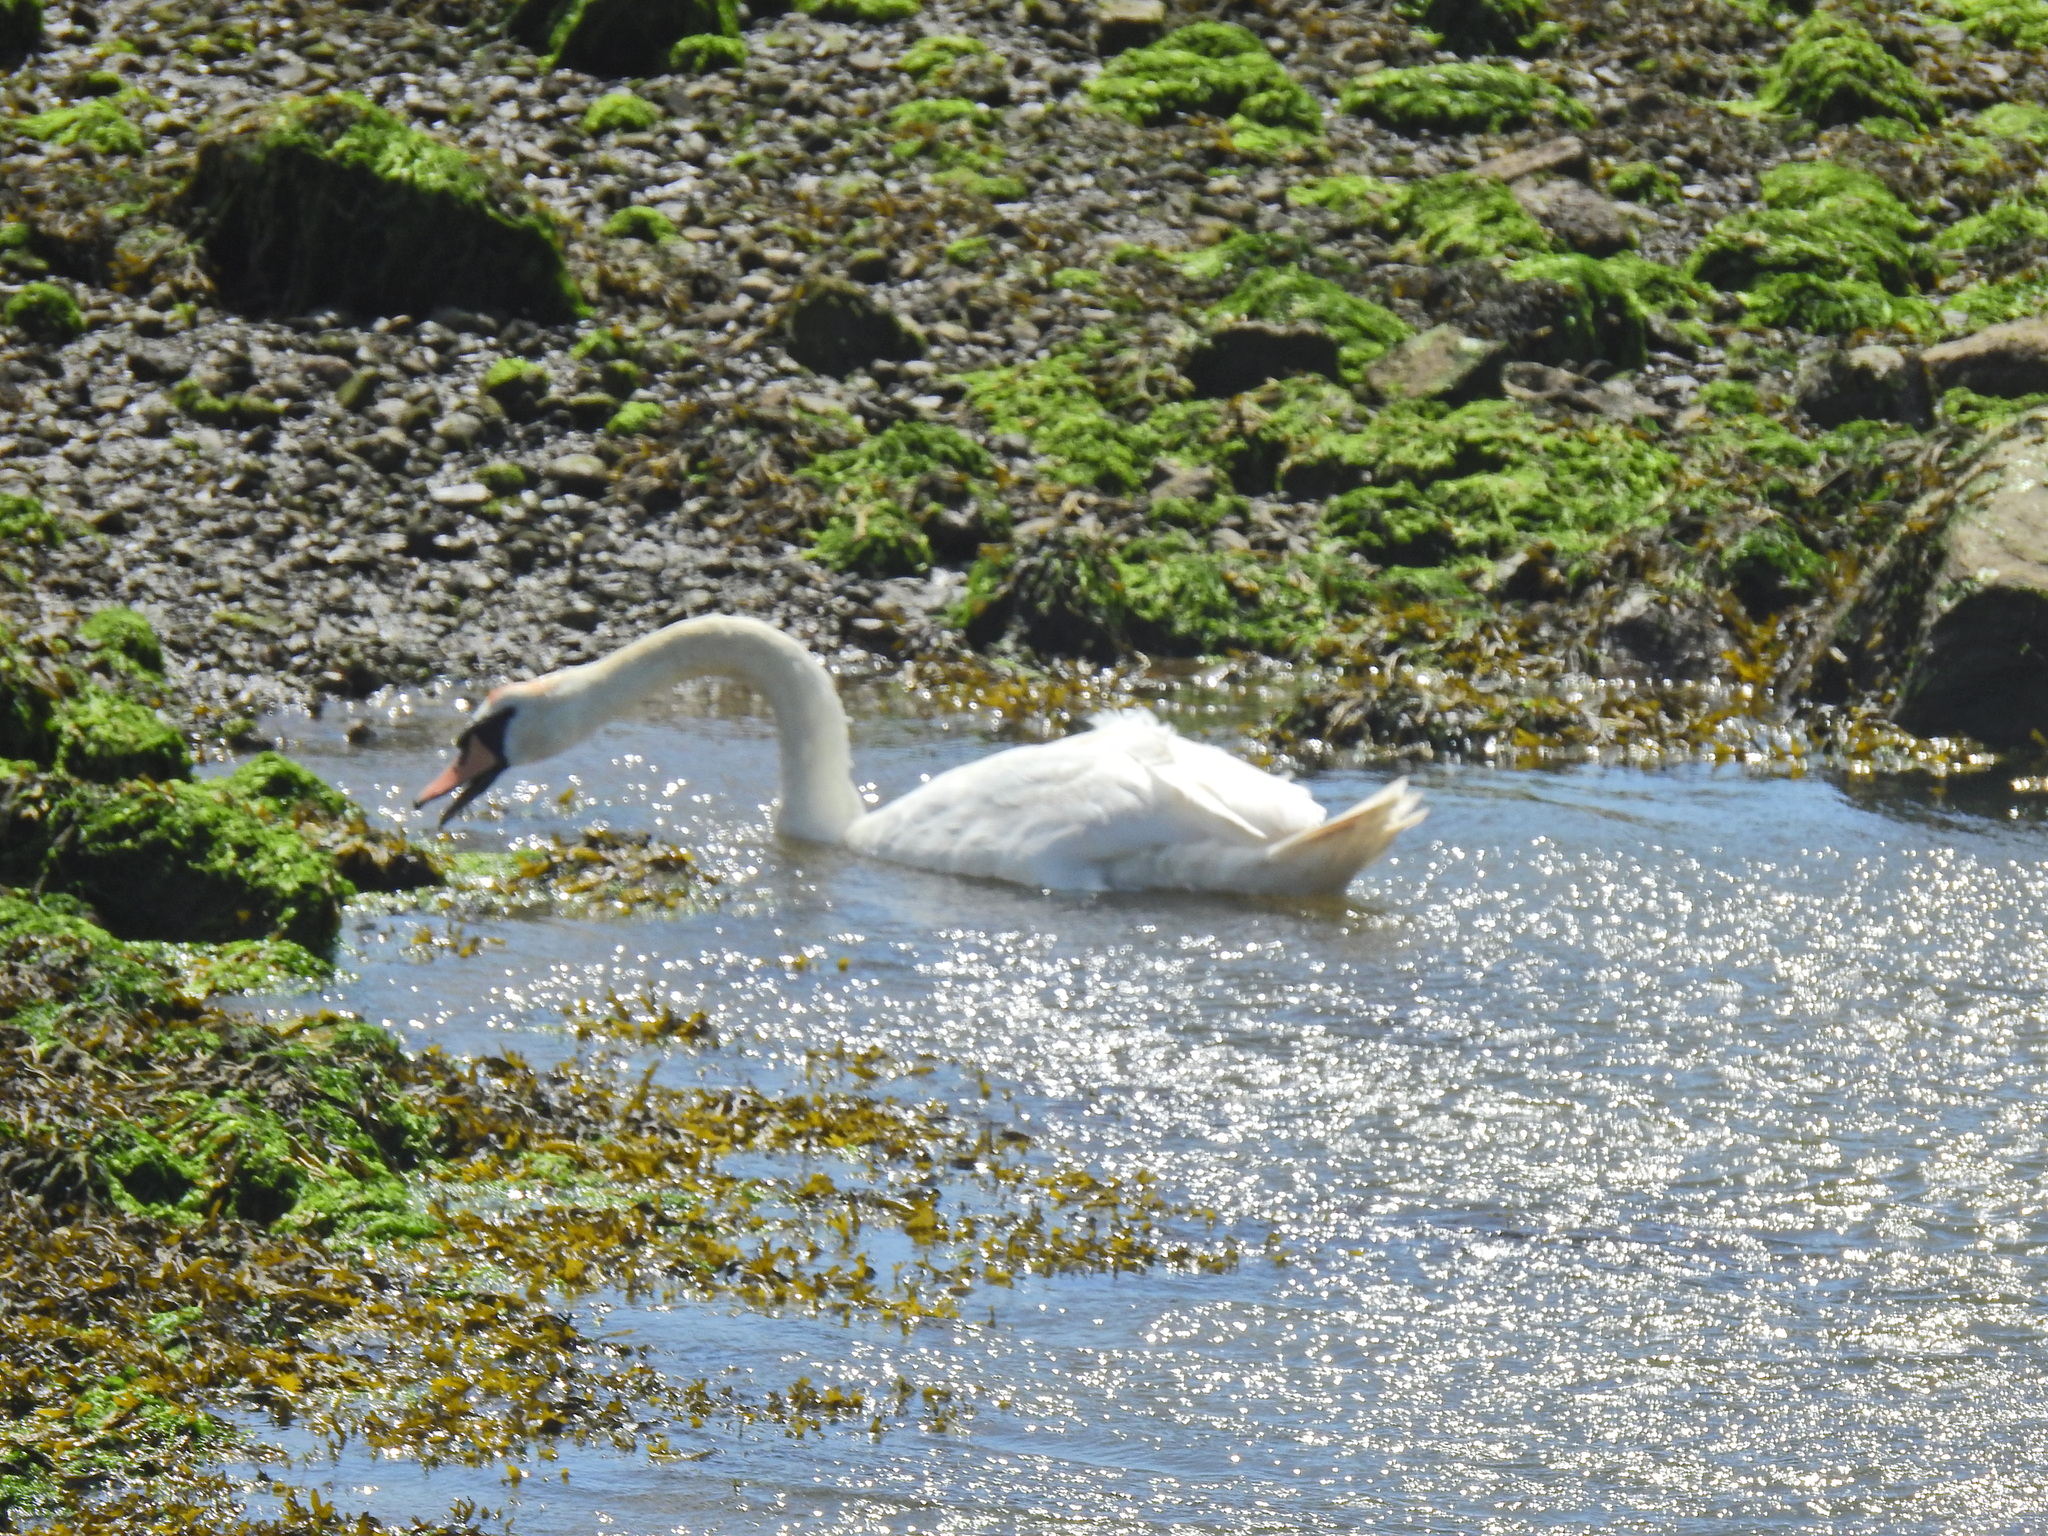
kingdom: Animalia
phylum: Chordata
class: Aves
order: Anseriformes
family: Anatidae
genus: Cygnus
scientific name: Cygnus olor
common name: Mute swan
